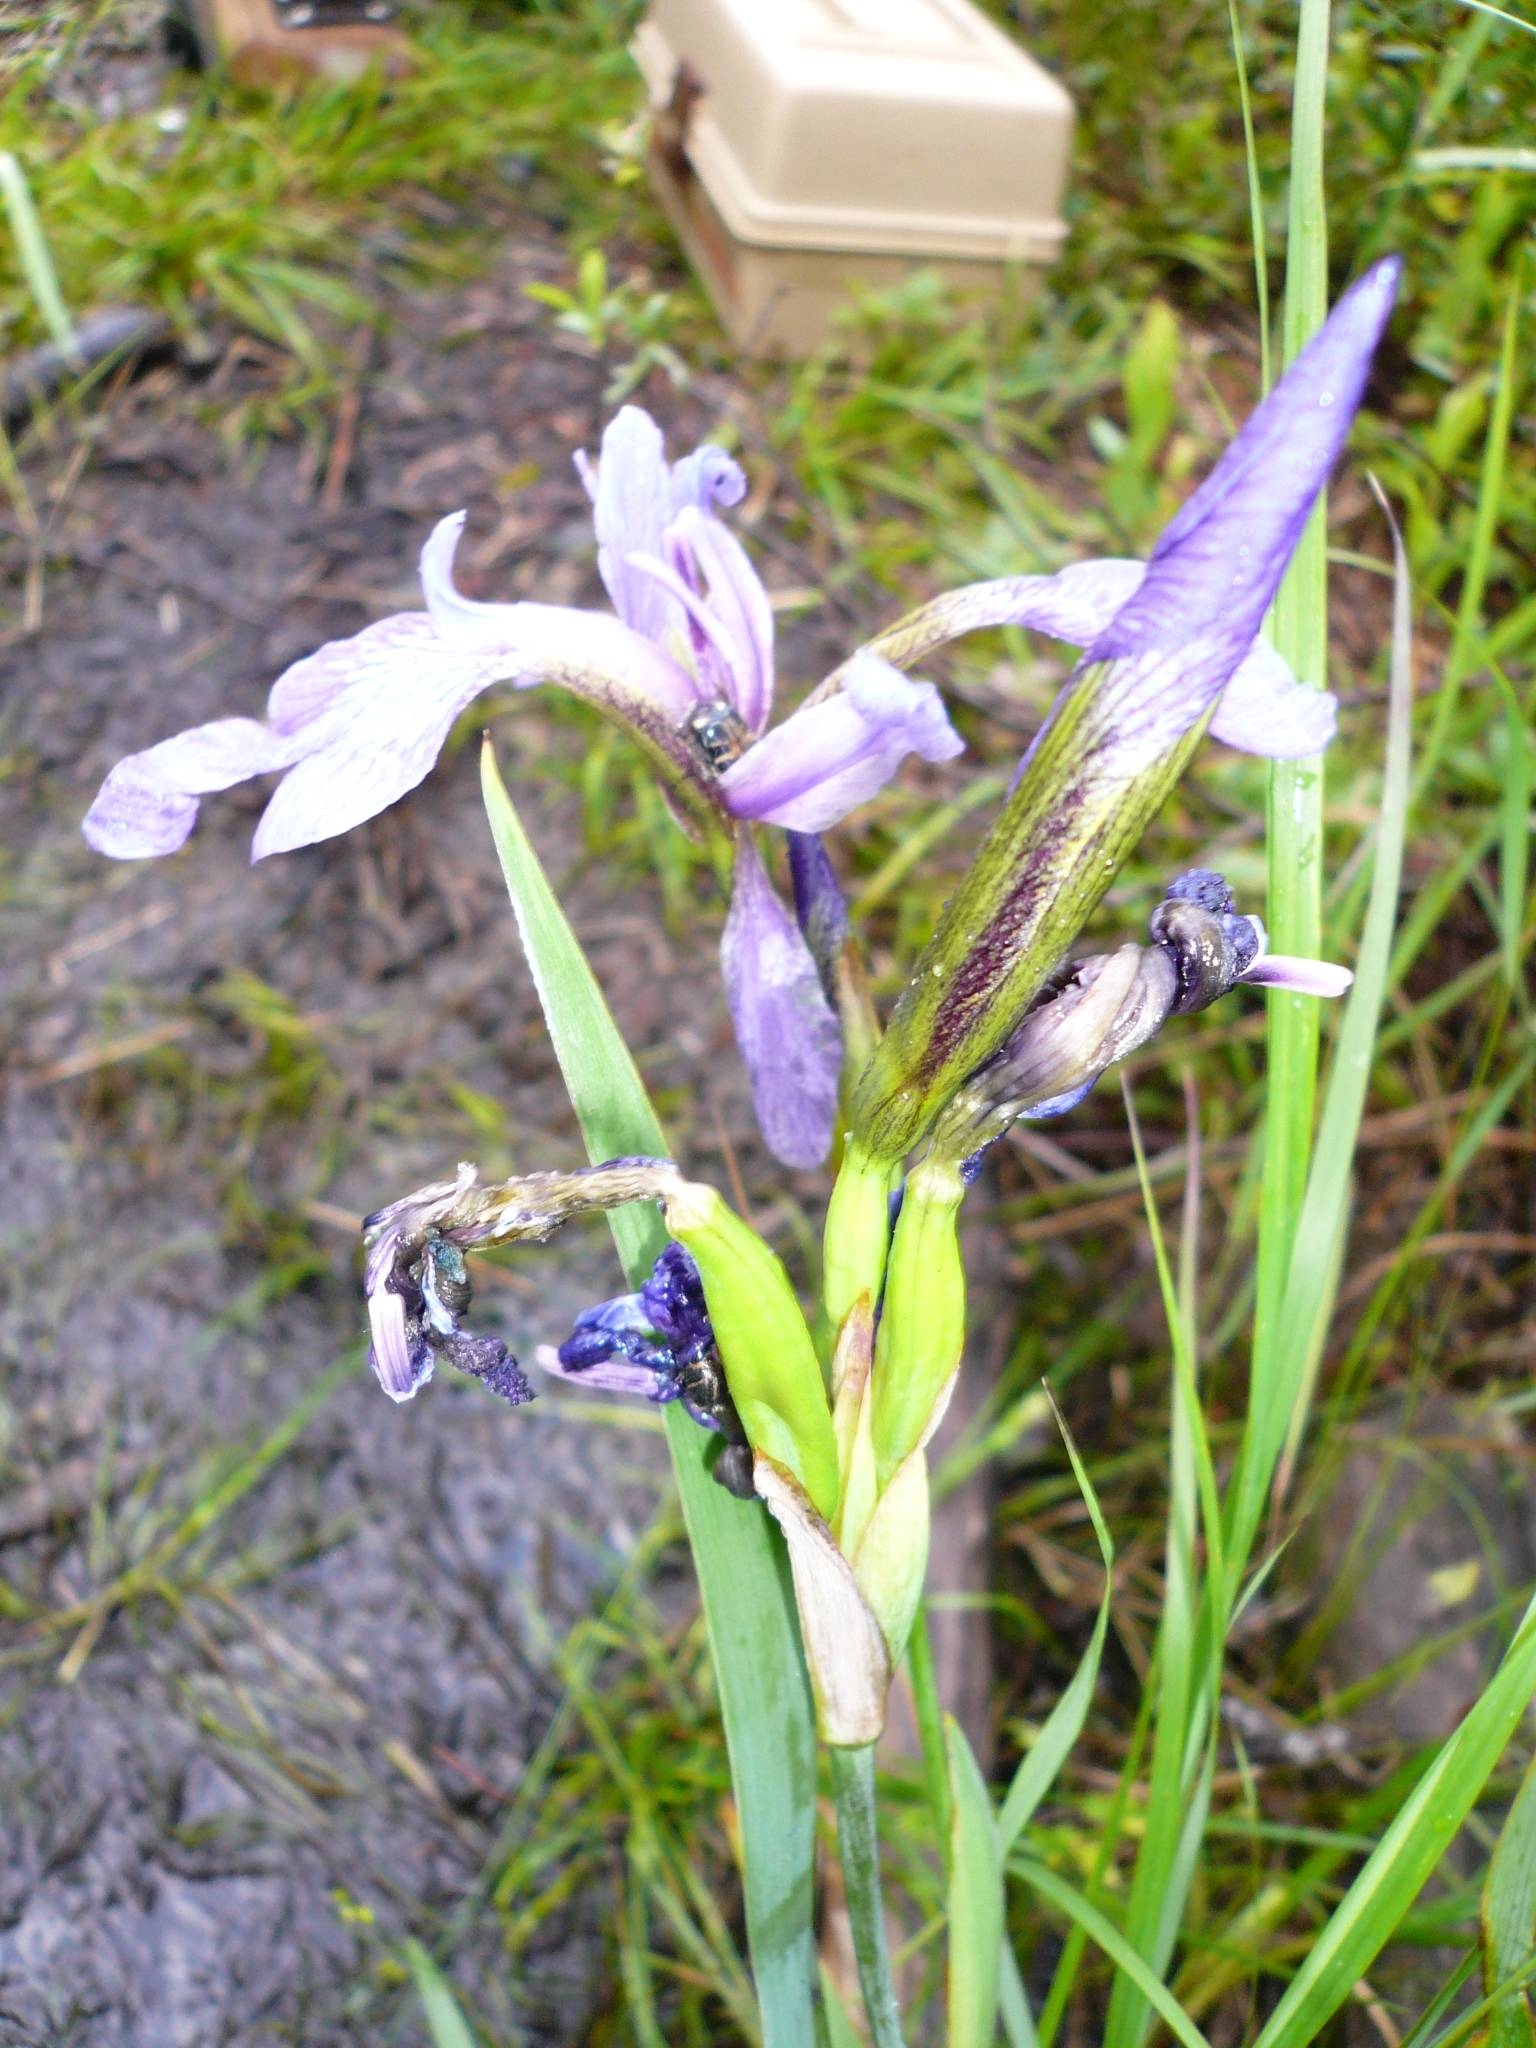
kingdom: Plantae
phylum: Tracheophyta
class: Liliopsida
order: Asparagales
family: Iridaceae
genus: Iris
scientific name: Iris versicolor
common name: Purple iris
